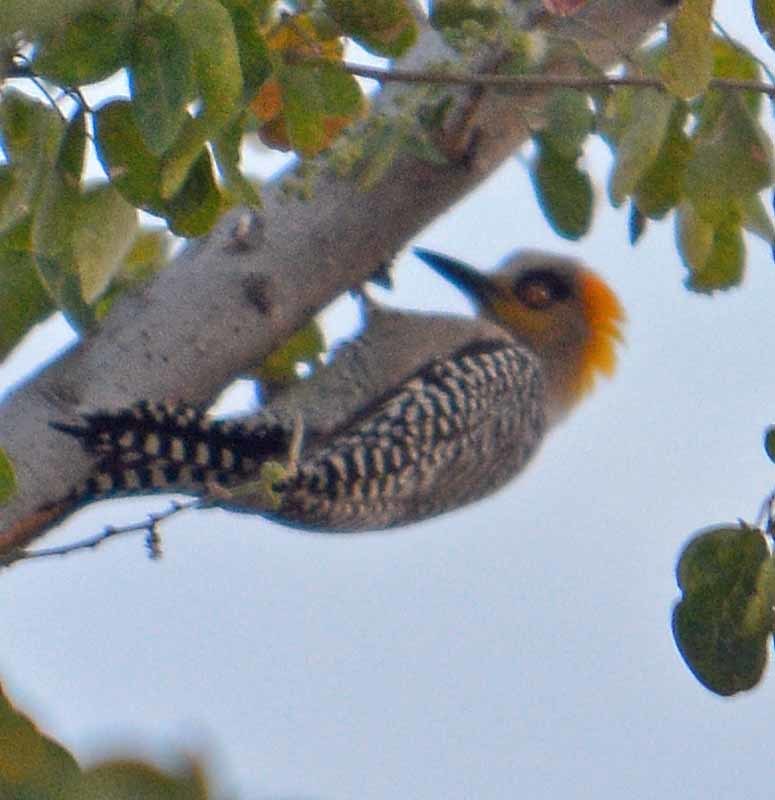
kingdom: Animalia
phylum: Chordata
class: Aves
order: Piciformes
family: Picidae
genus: Melanerpes
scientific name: Melanerpes chrysogenys
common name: Golden-cheeked woodpecker
